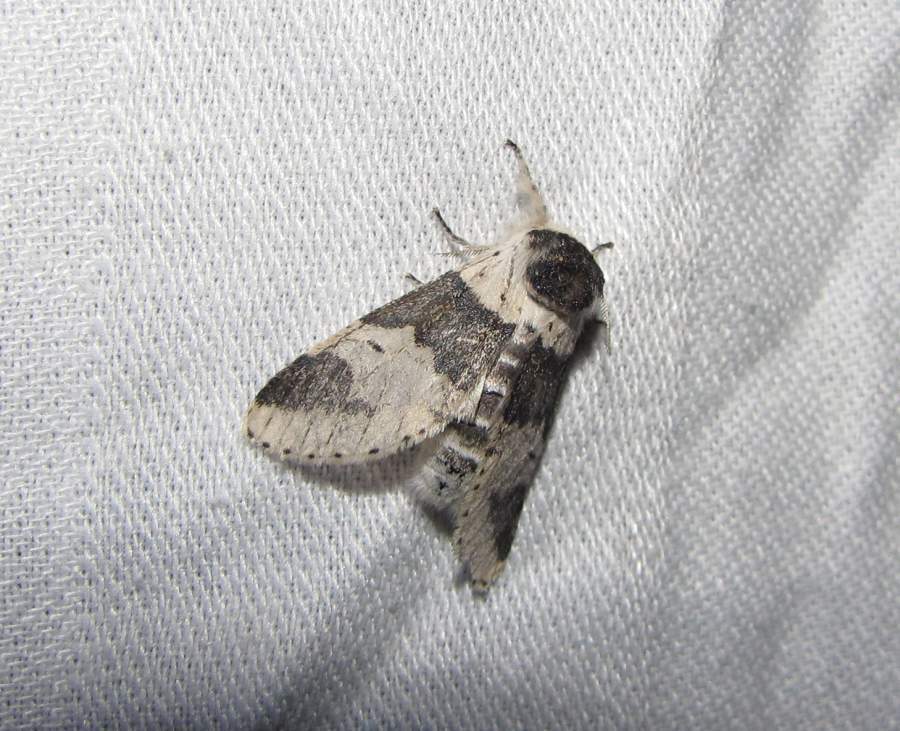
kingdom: Animalia
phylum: Arthropoda
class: Insecta
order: Lepidoptera
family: Notodontidae
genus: Furcula
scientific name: Furcula modesta
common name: Modest furcula moth
